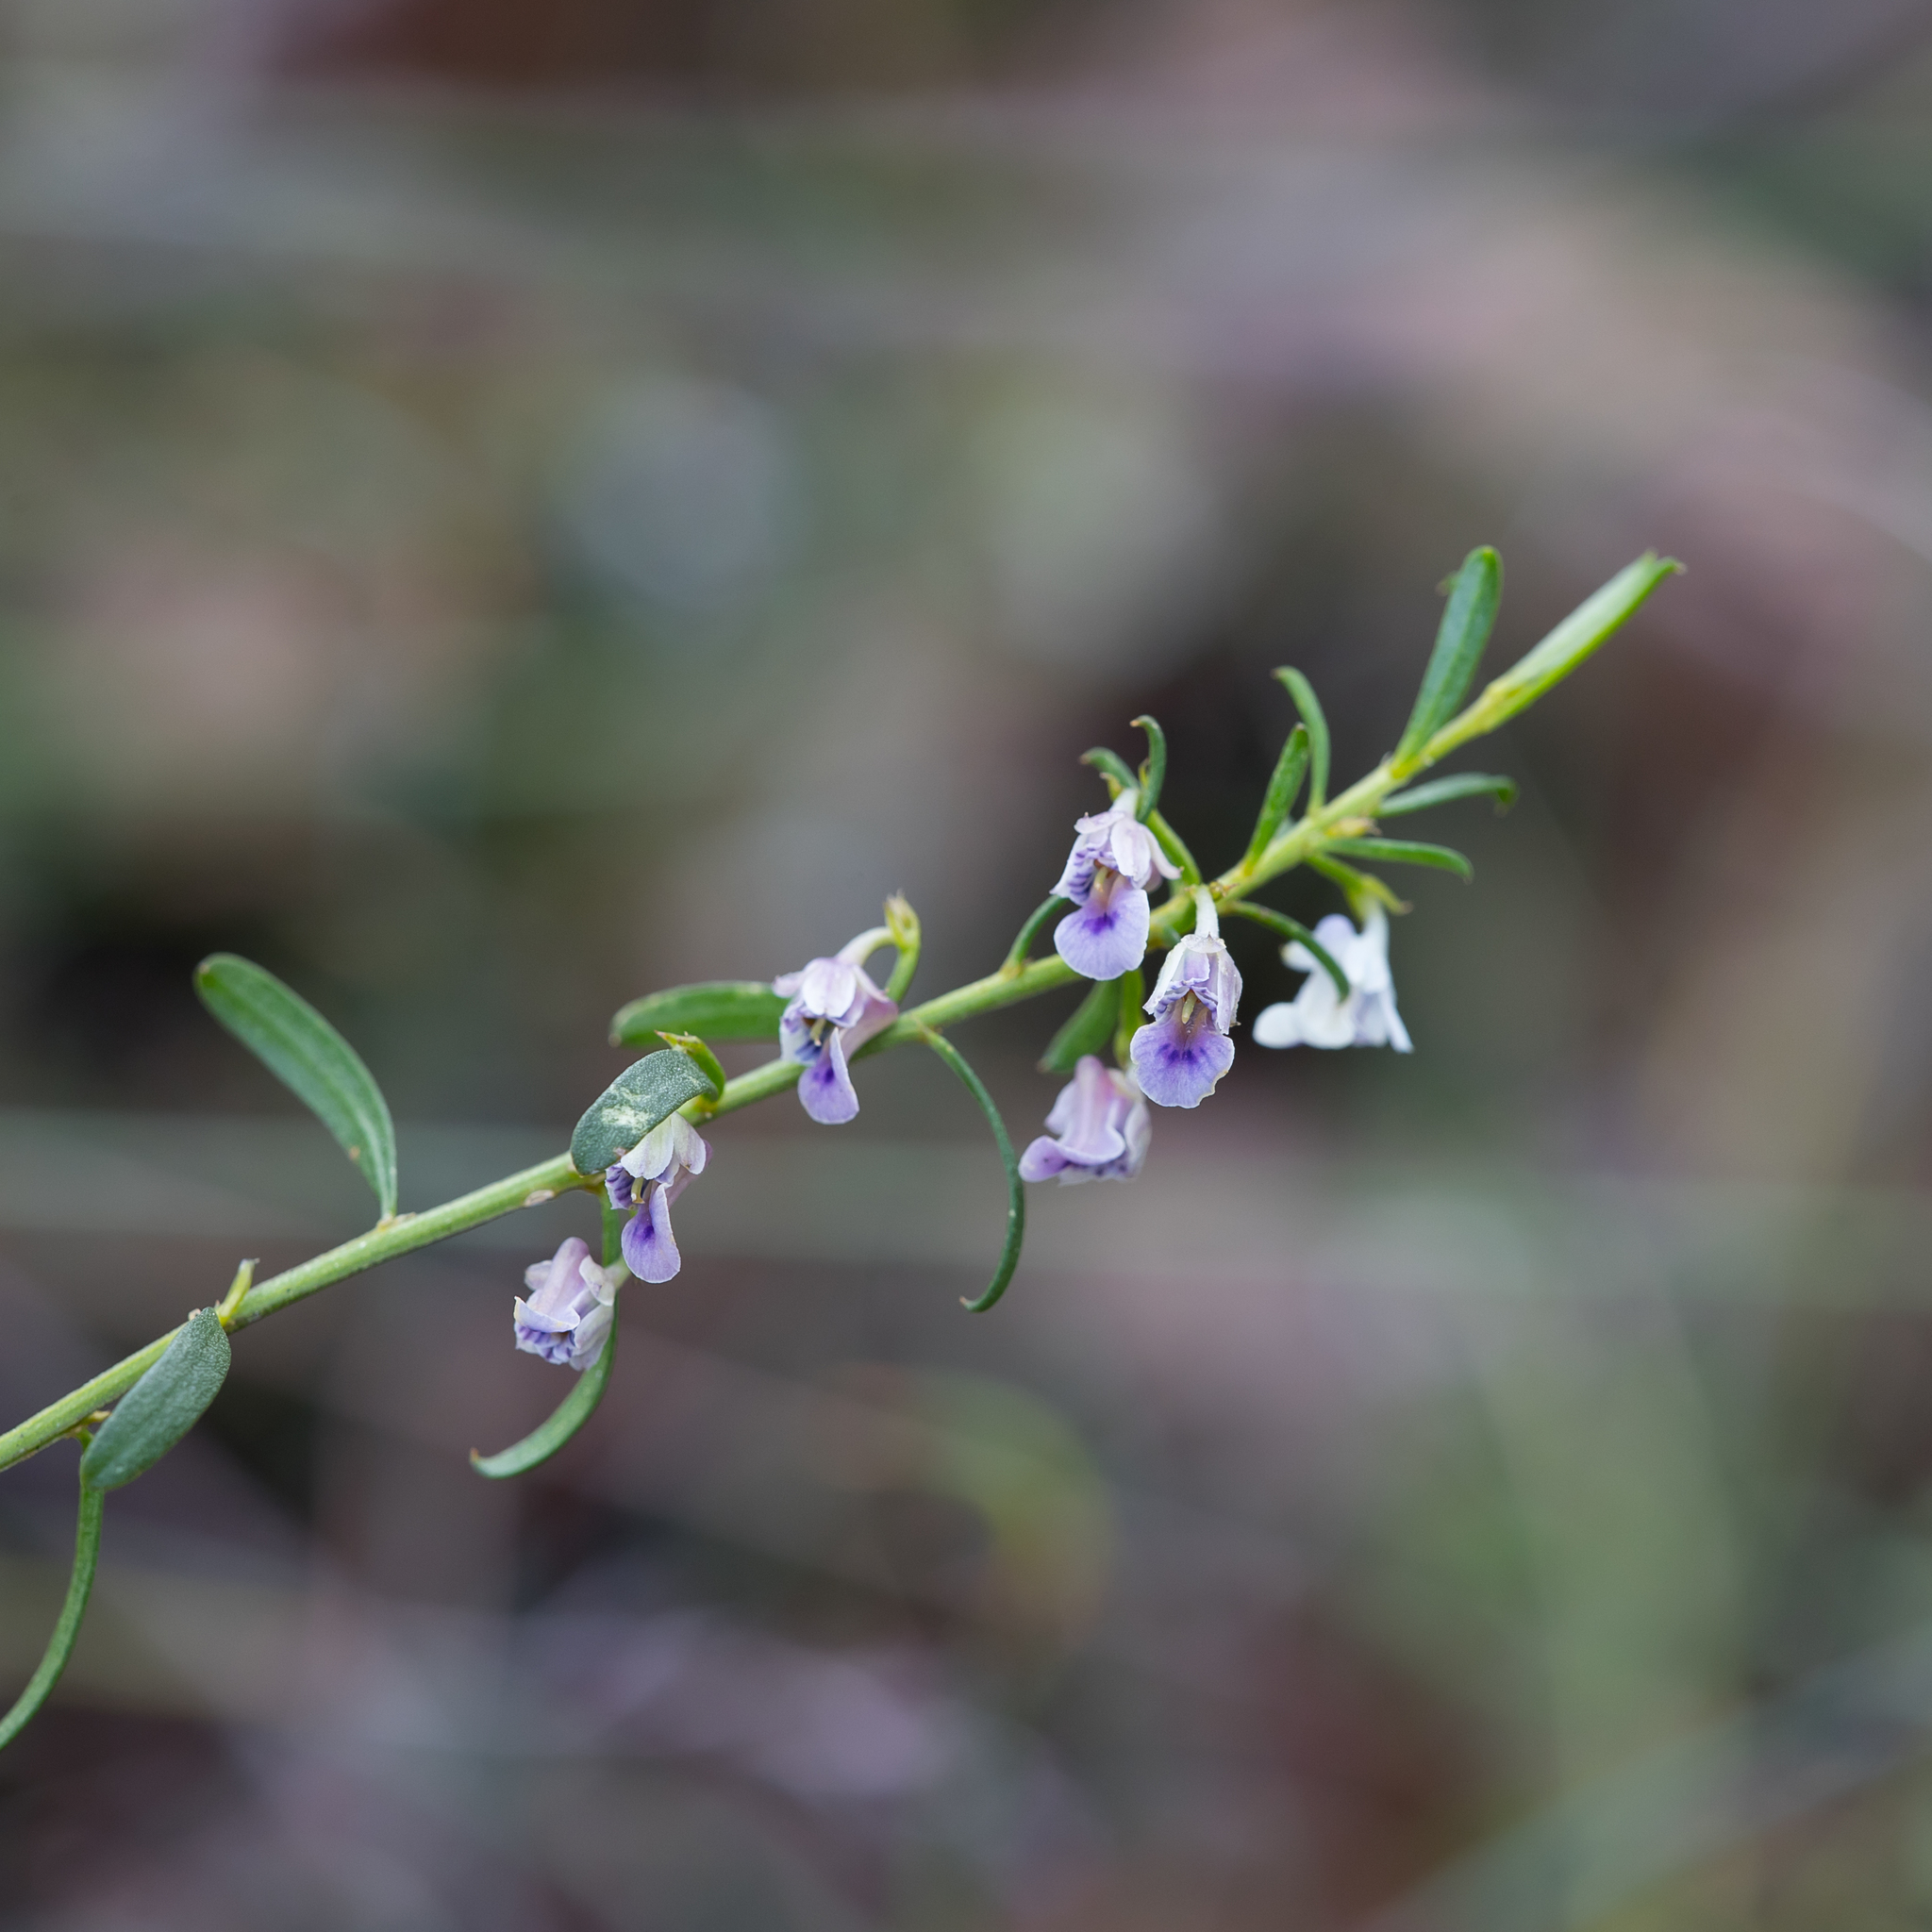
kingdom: Plantae
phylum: Tracheophyta
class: Magnoliopsida
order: Malpighiales
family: Violaceae
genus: Pigea
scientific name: Pigea floribunda
